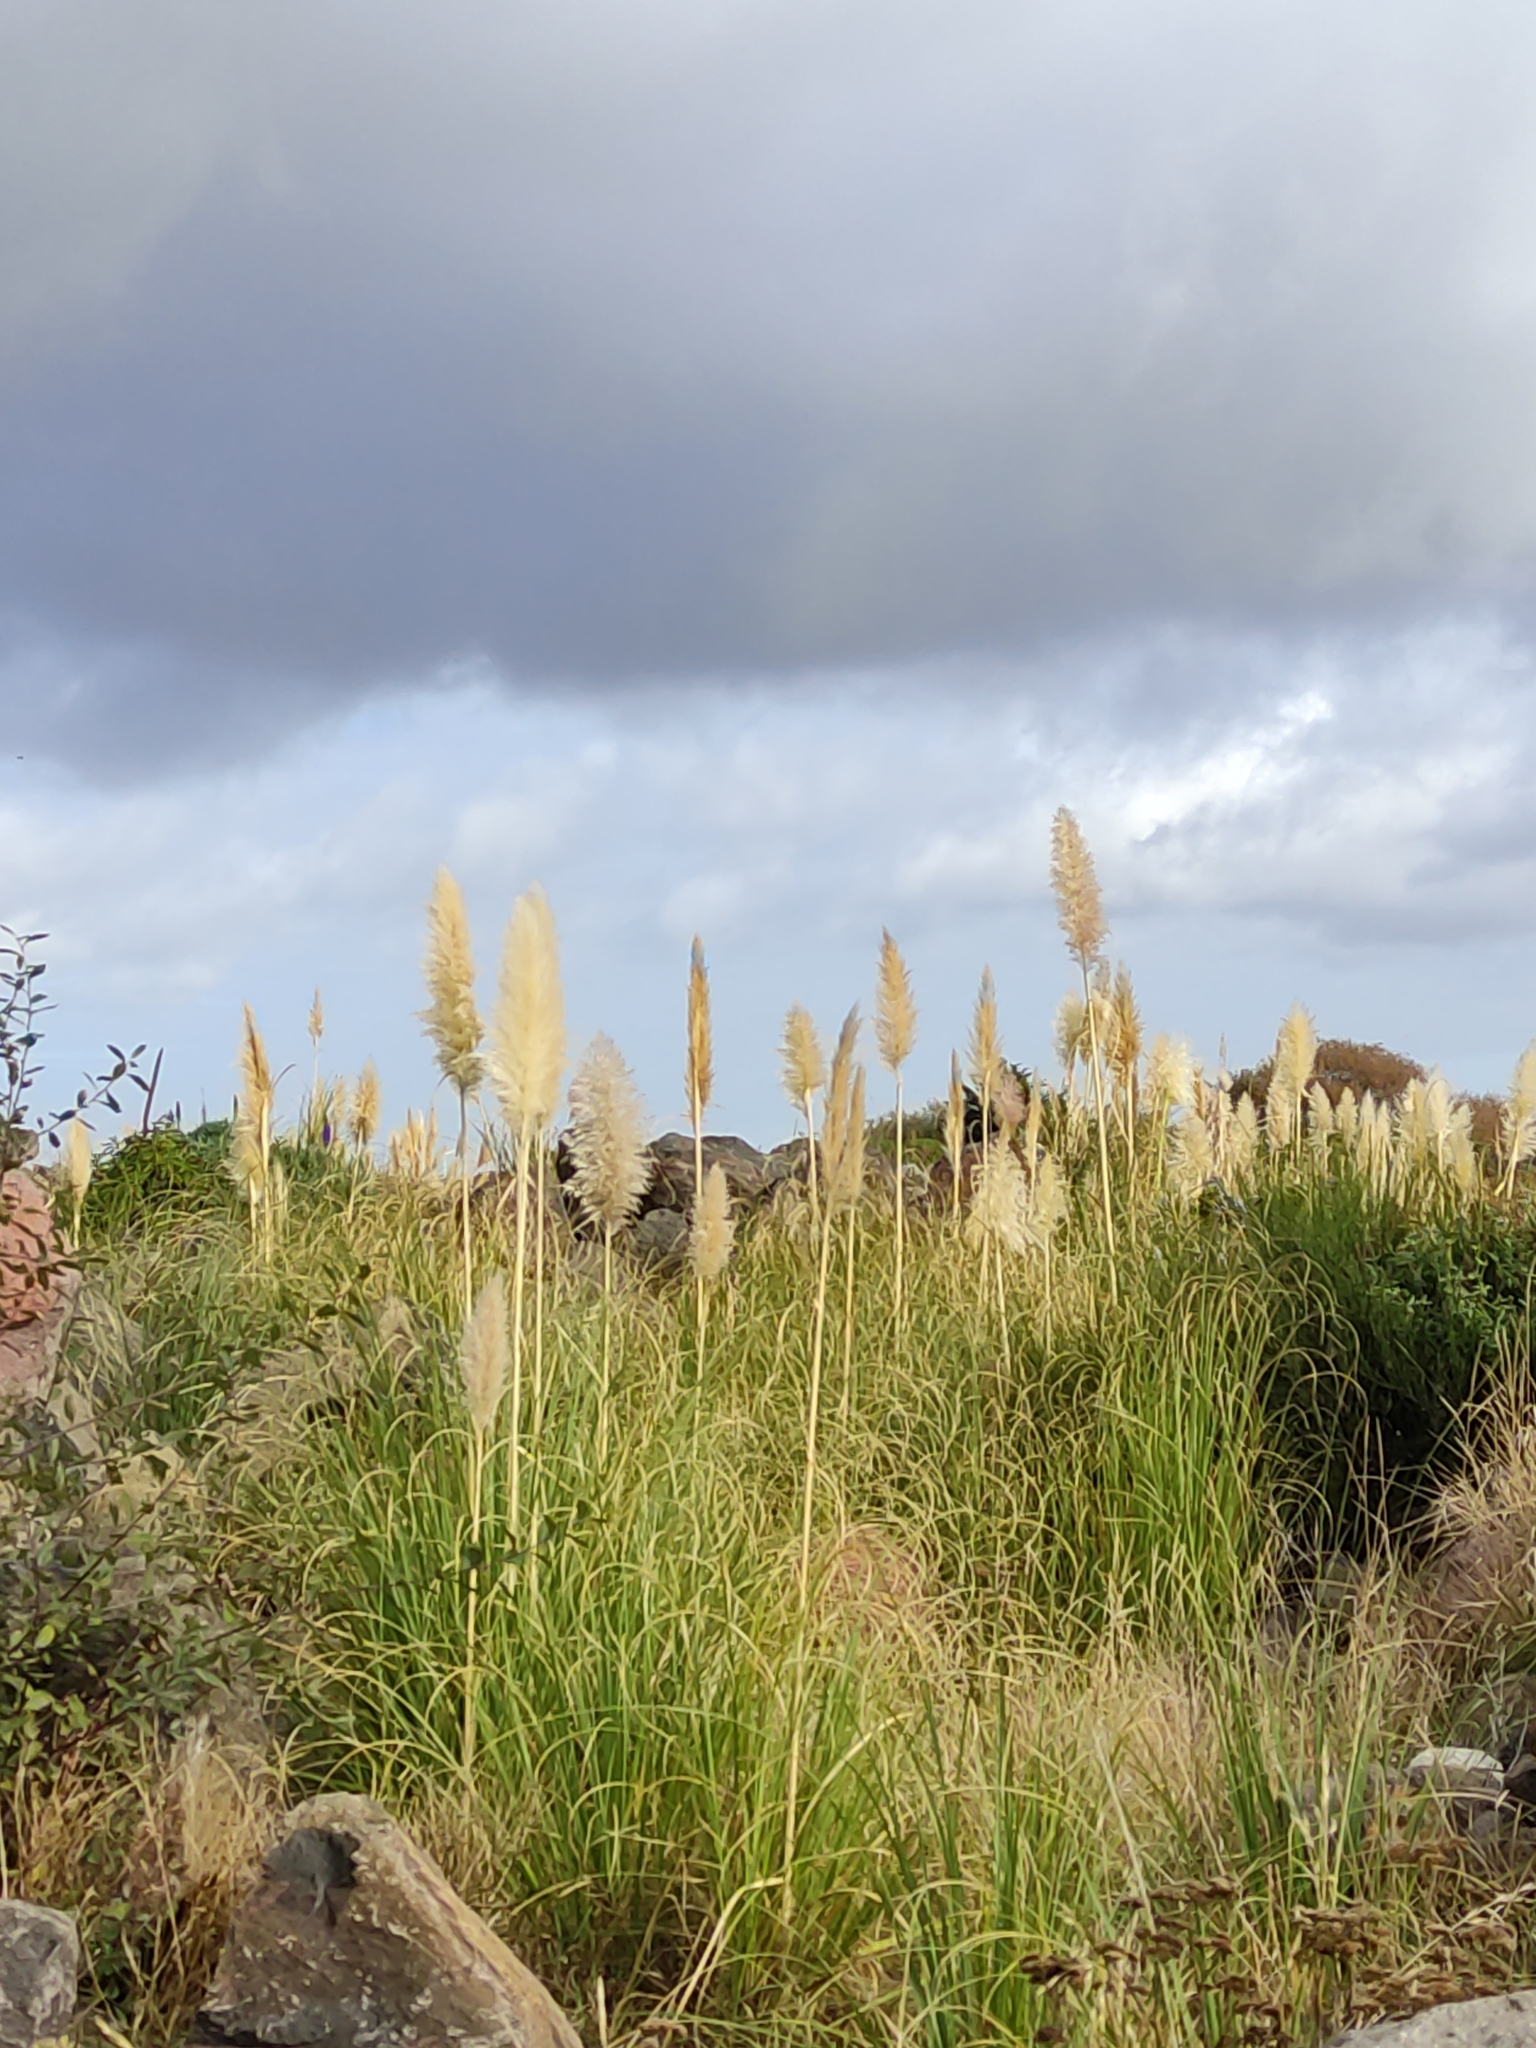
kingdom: Plantae
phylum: Tracheophyta
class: Liliopsida
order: Poales
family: Poaceae
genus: Cortaderia
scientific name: Cortaderia selloana
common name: Uruguayan pampas grass
